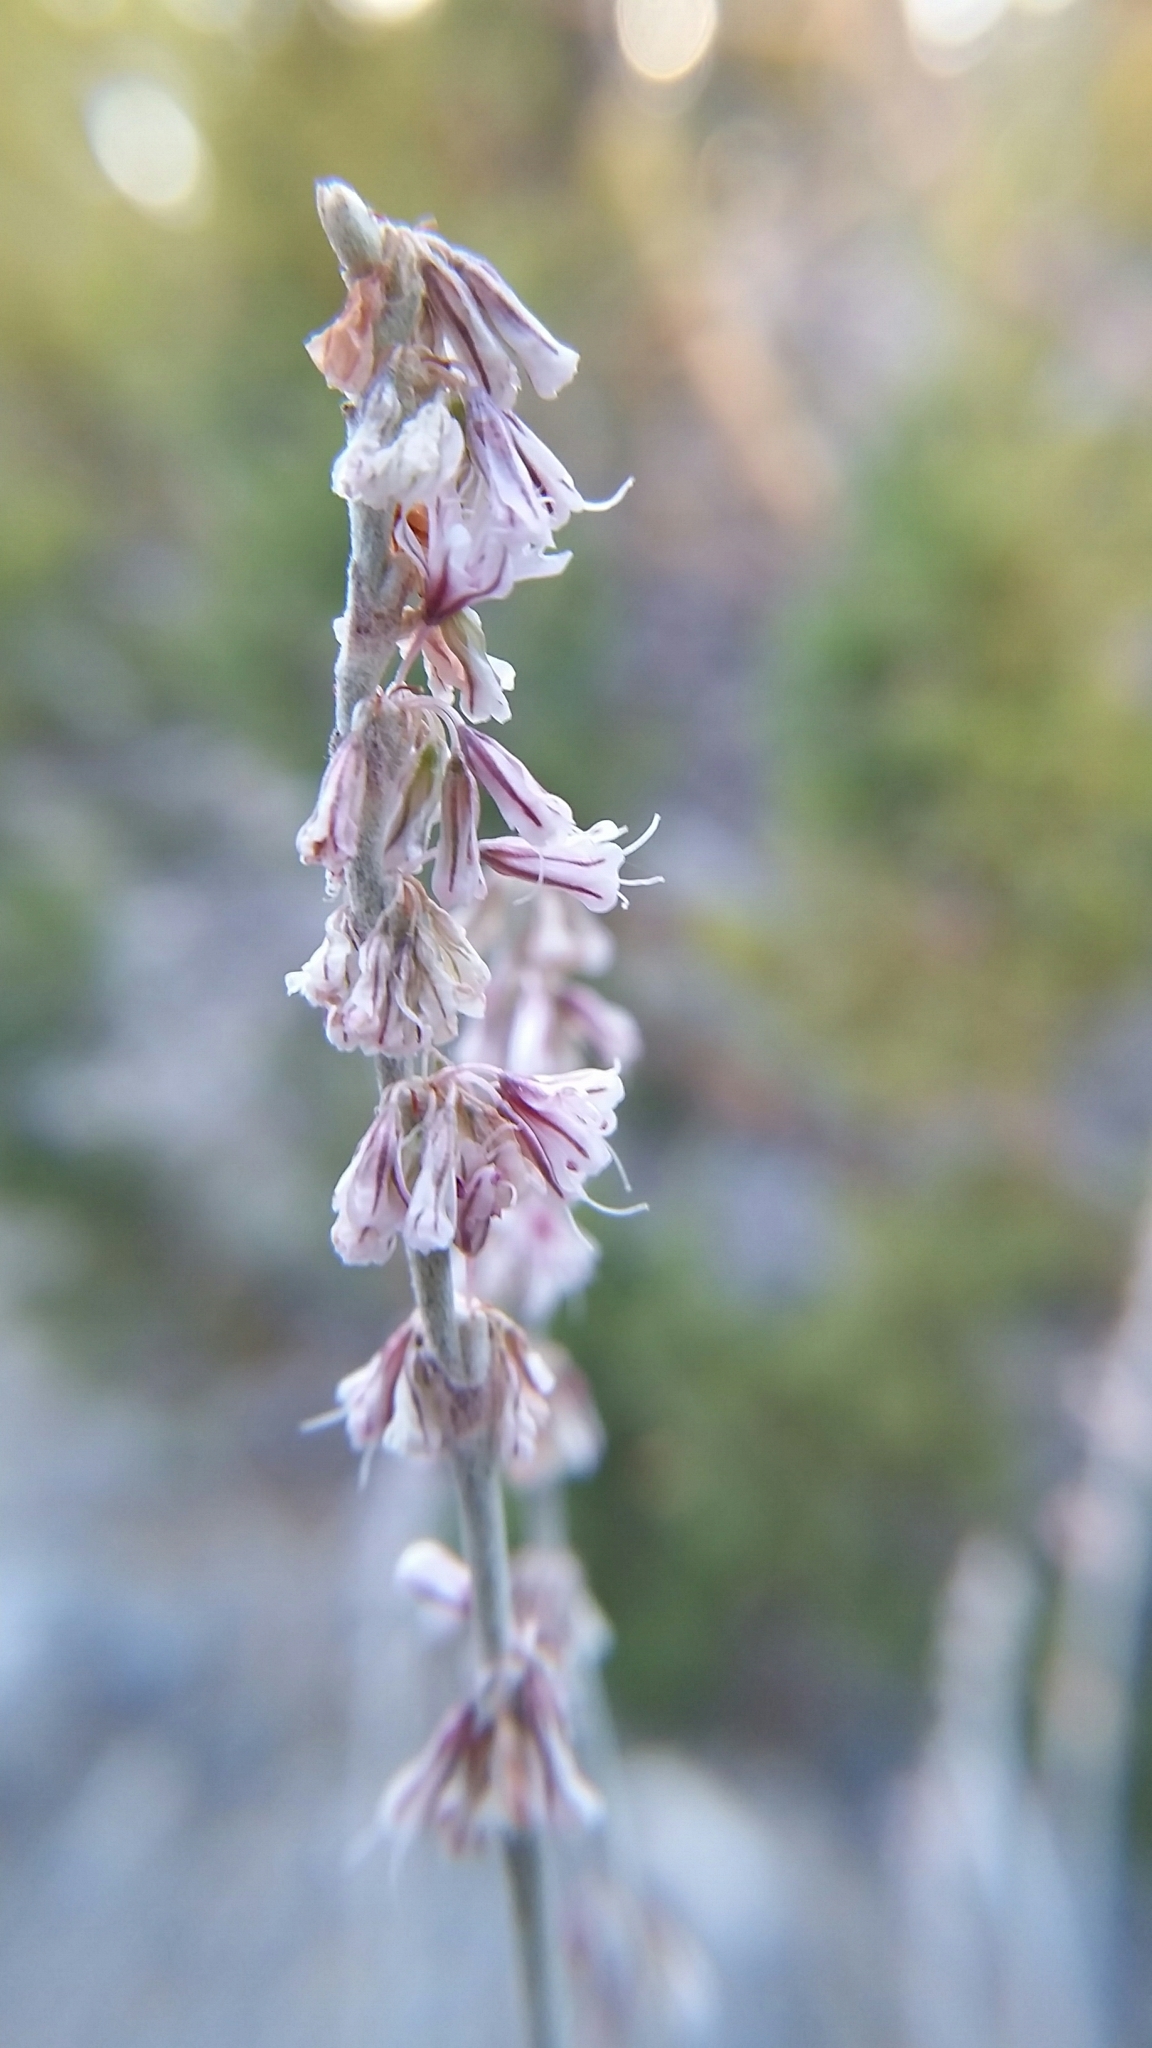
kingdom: Plantae
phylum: Tracheophyta
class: Magnoliopsida
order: Caryophyllales
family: Polygonaceae
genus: Eriogonum
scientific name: Eriogonum racemosum
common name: Redroot wild buckwheat
